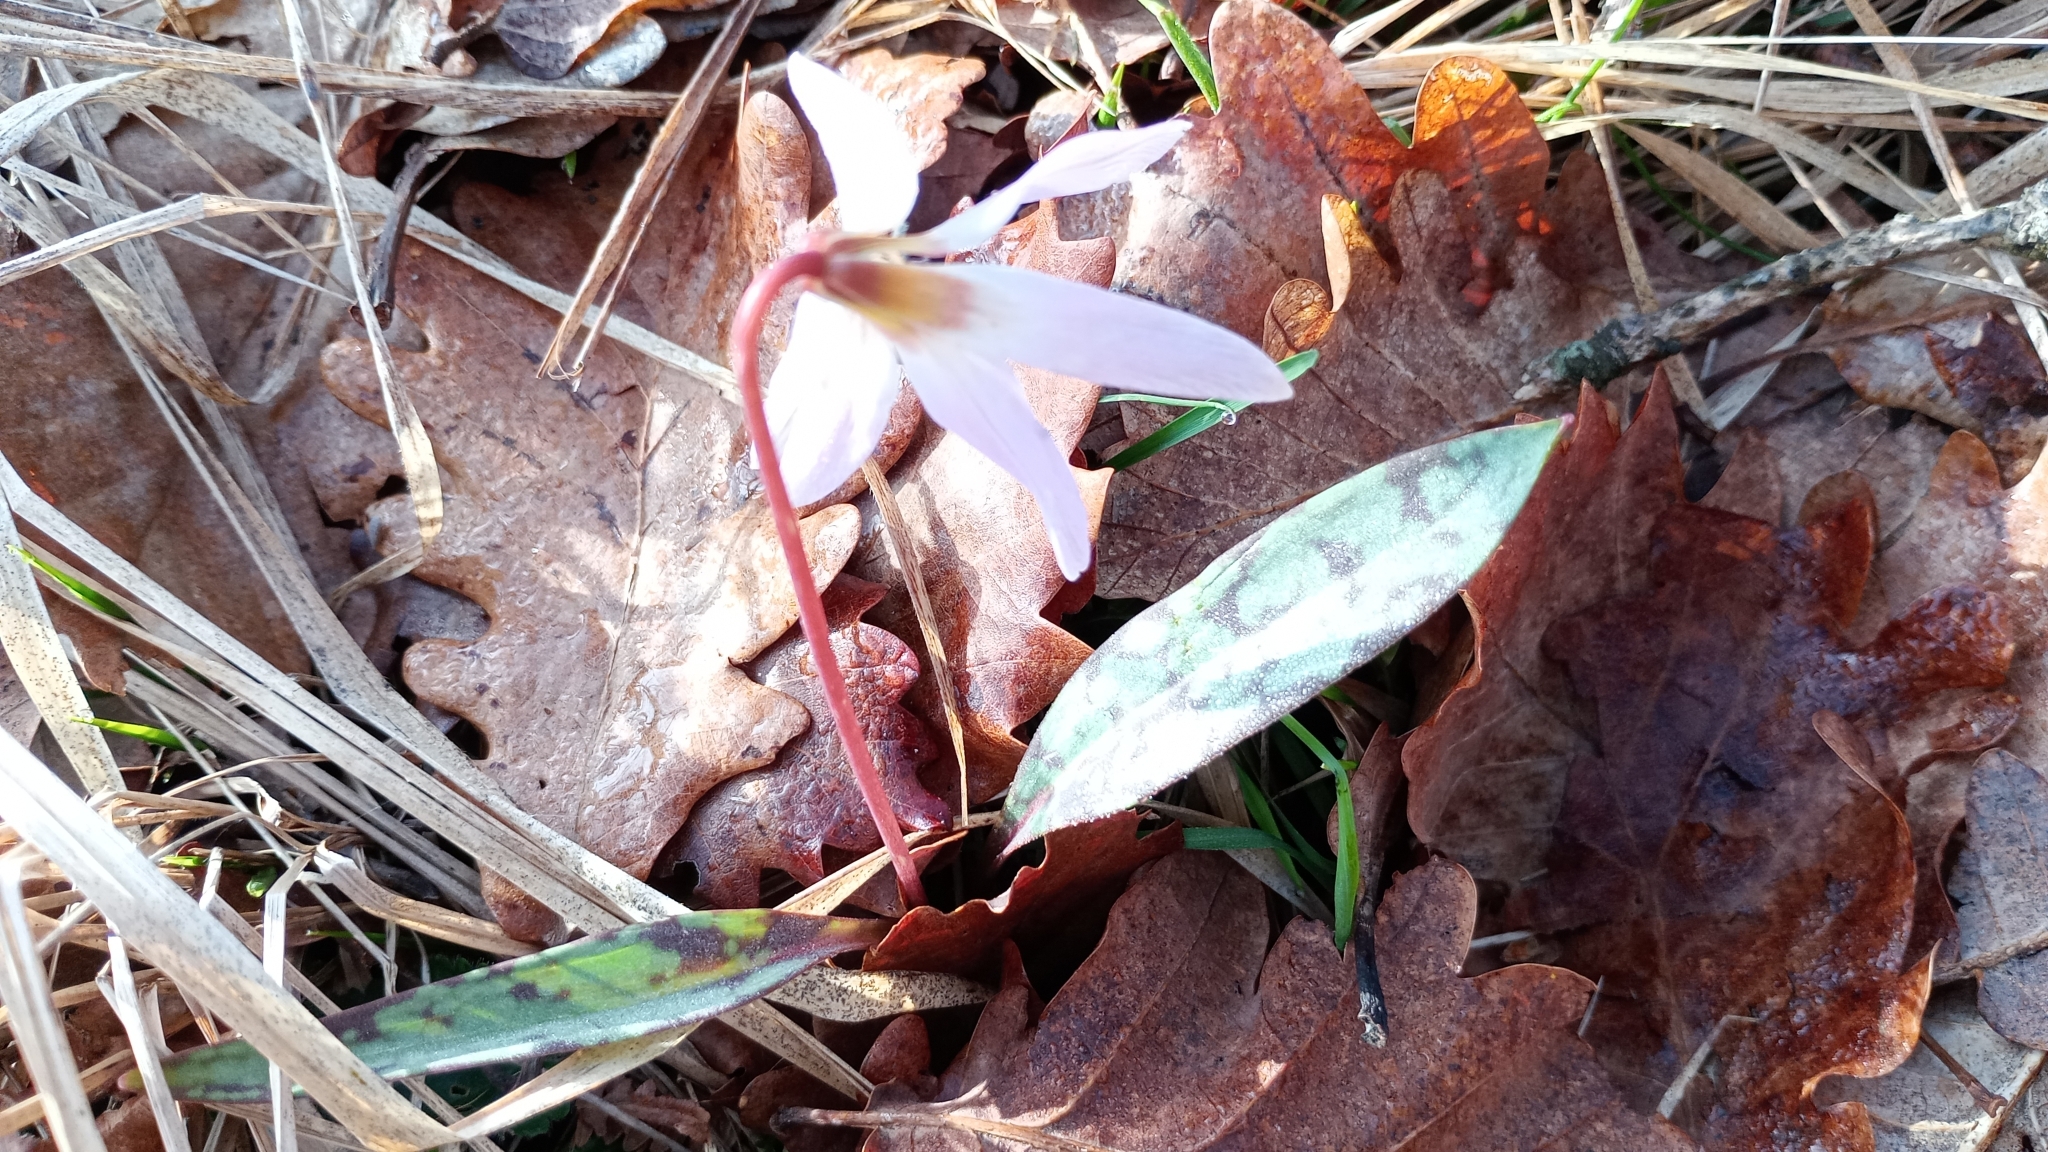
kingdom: Plantae
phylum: Tracheophyta
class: Liliopsida
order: Liliales
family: Liliaceae
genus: Erythronium
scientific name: Erythronium dens-canis
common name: Dog's-tooth-violet
